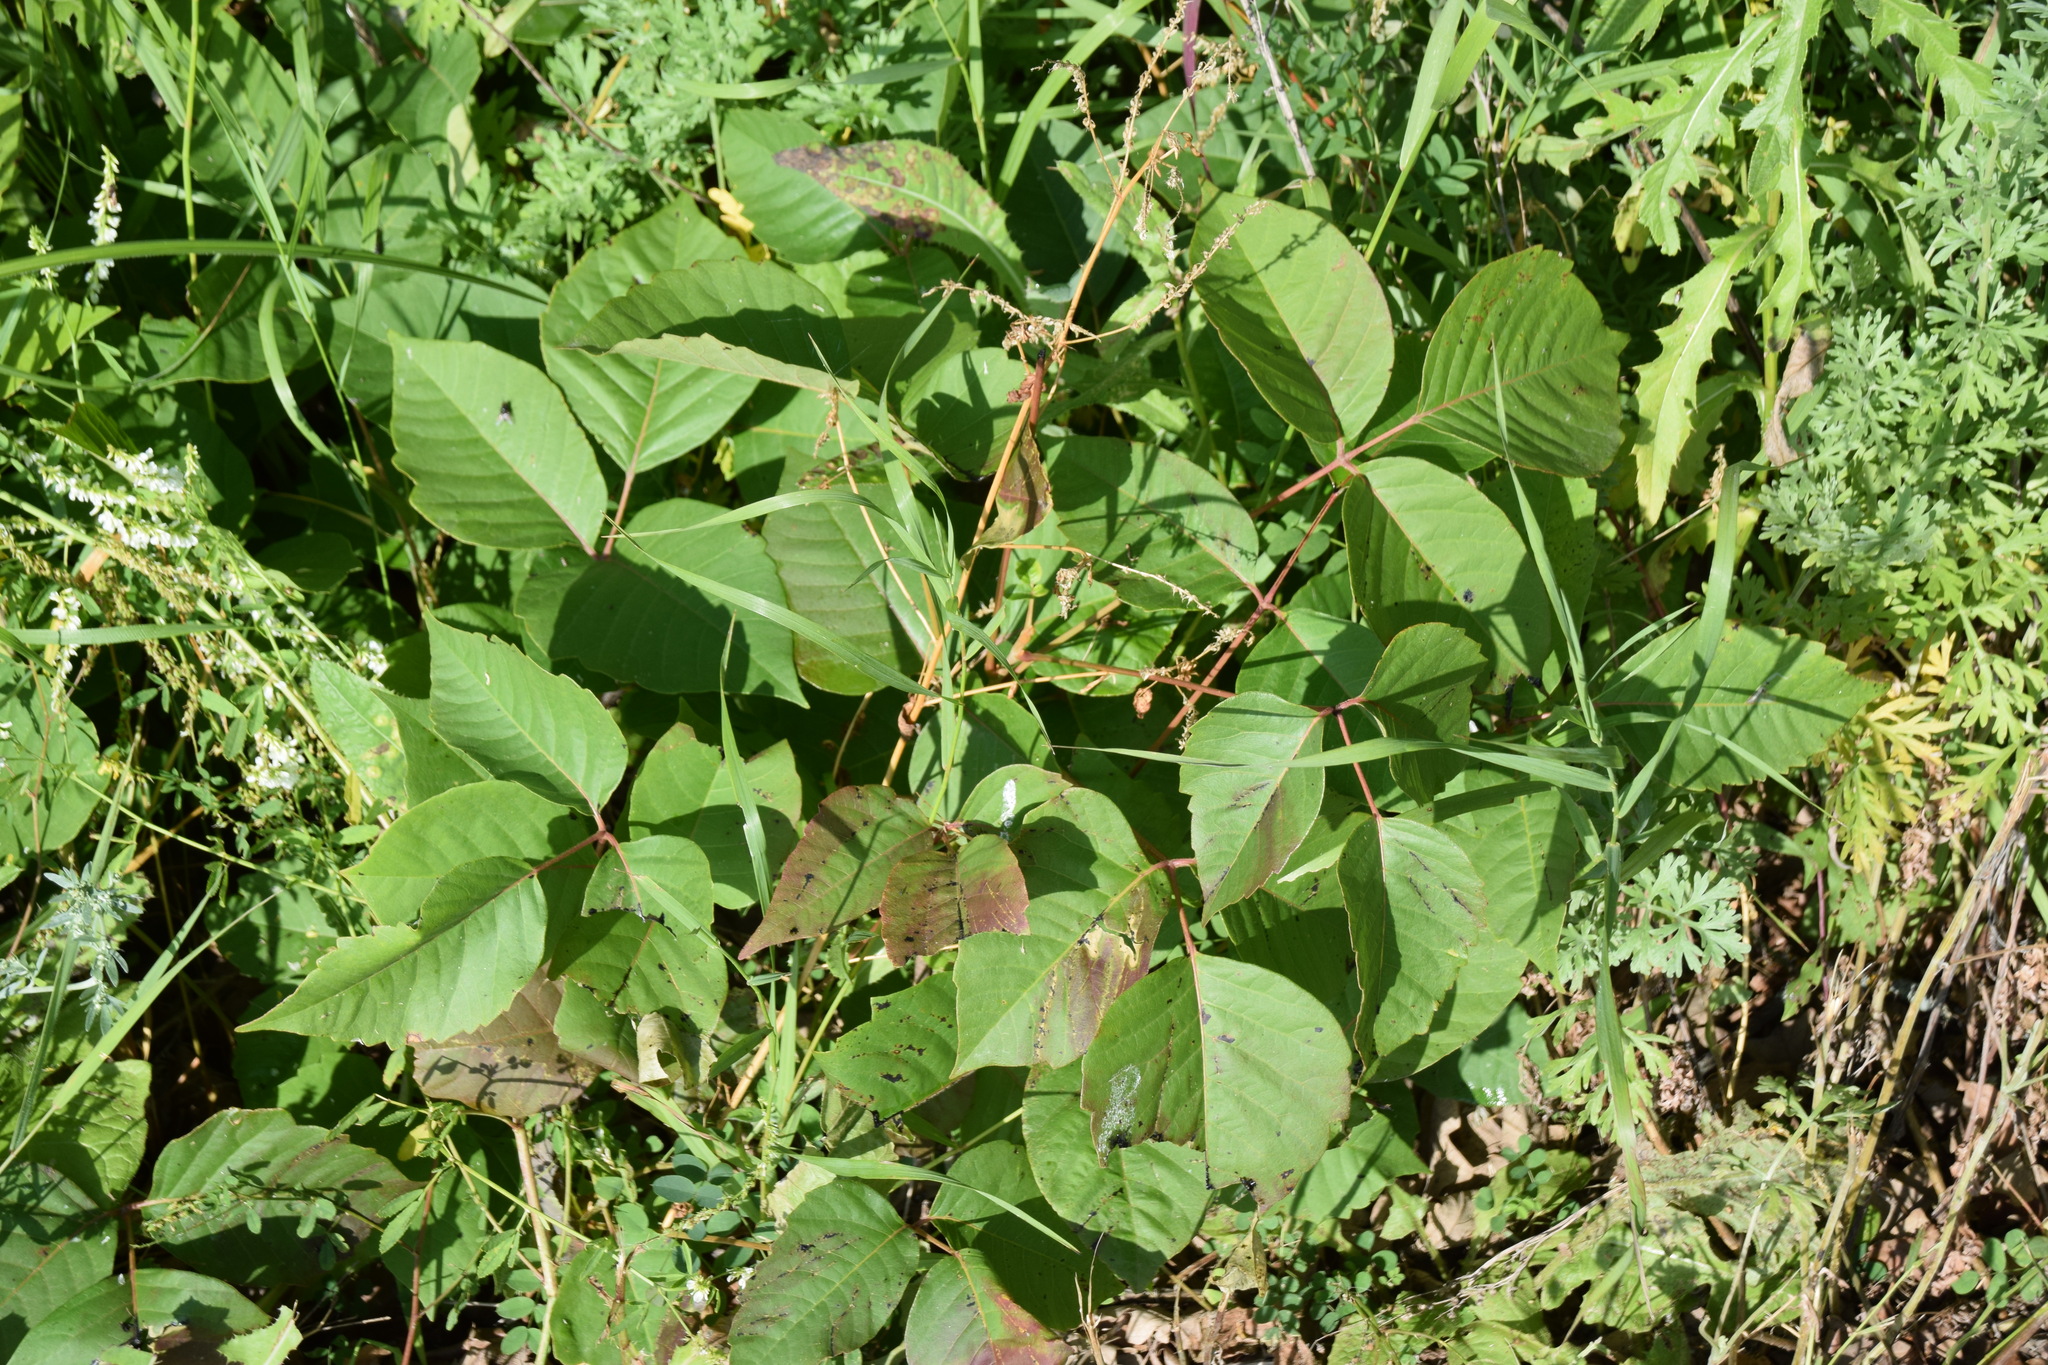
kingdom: Plantae
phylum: Tracheophyta
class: Magnoliopsida
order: Sapindales
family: Anacardiaceae
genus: Toxicodendron
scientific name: Toxicodendron rydbergii
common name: Rydberg's poison-ivy
